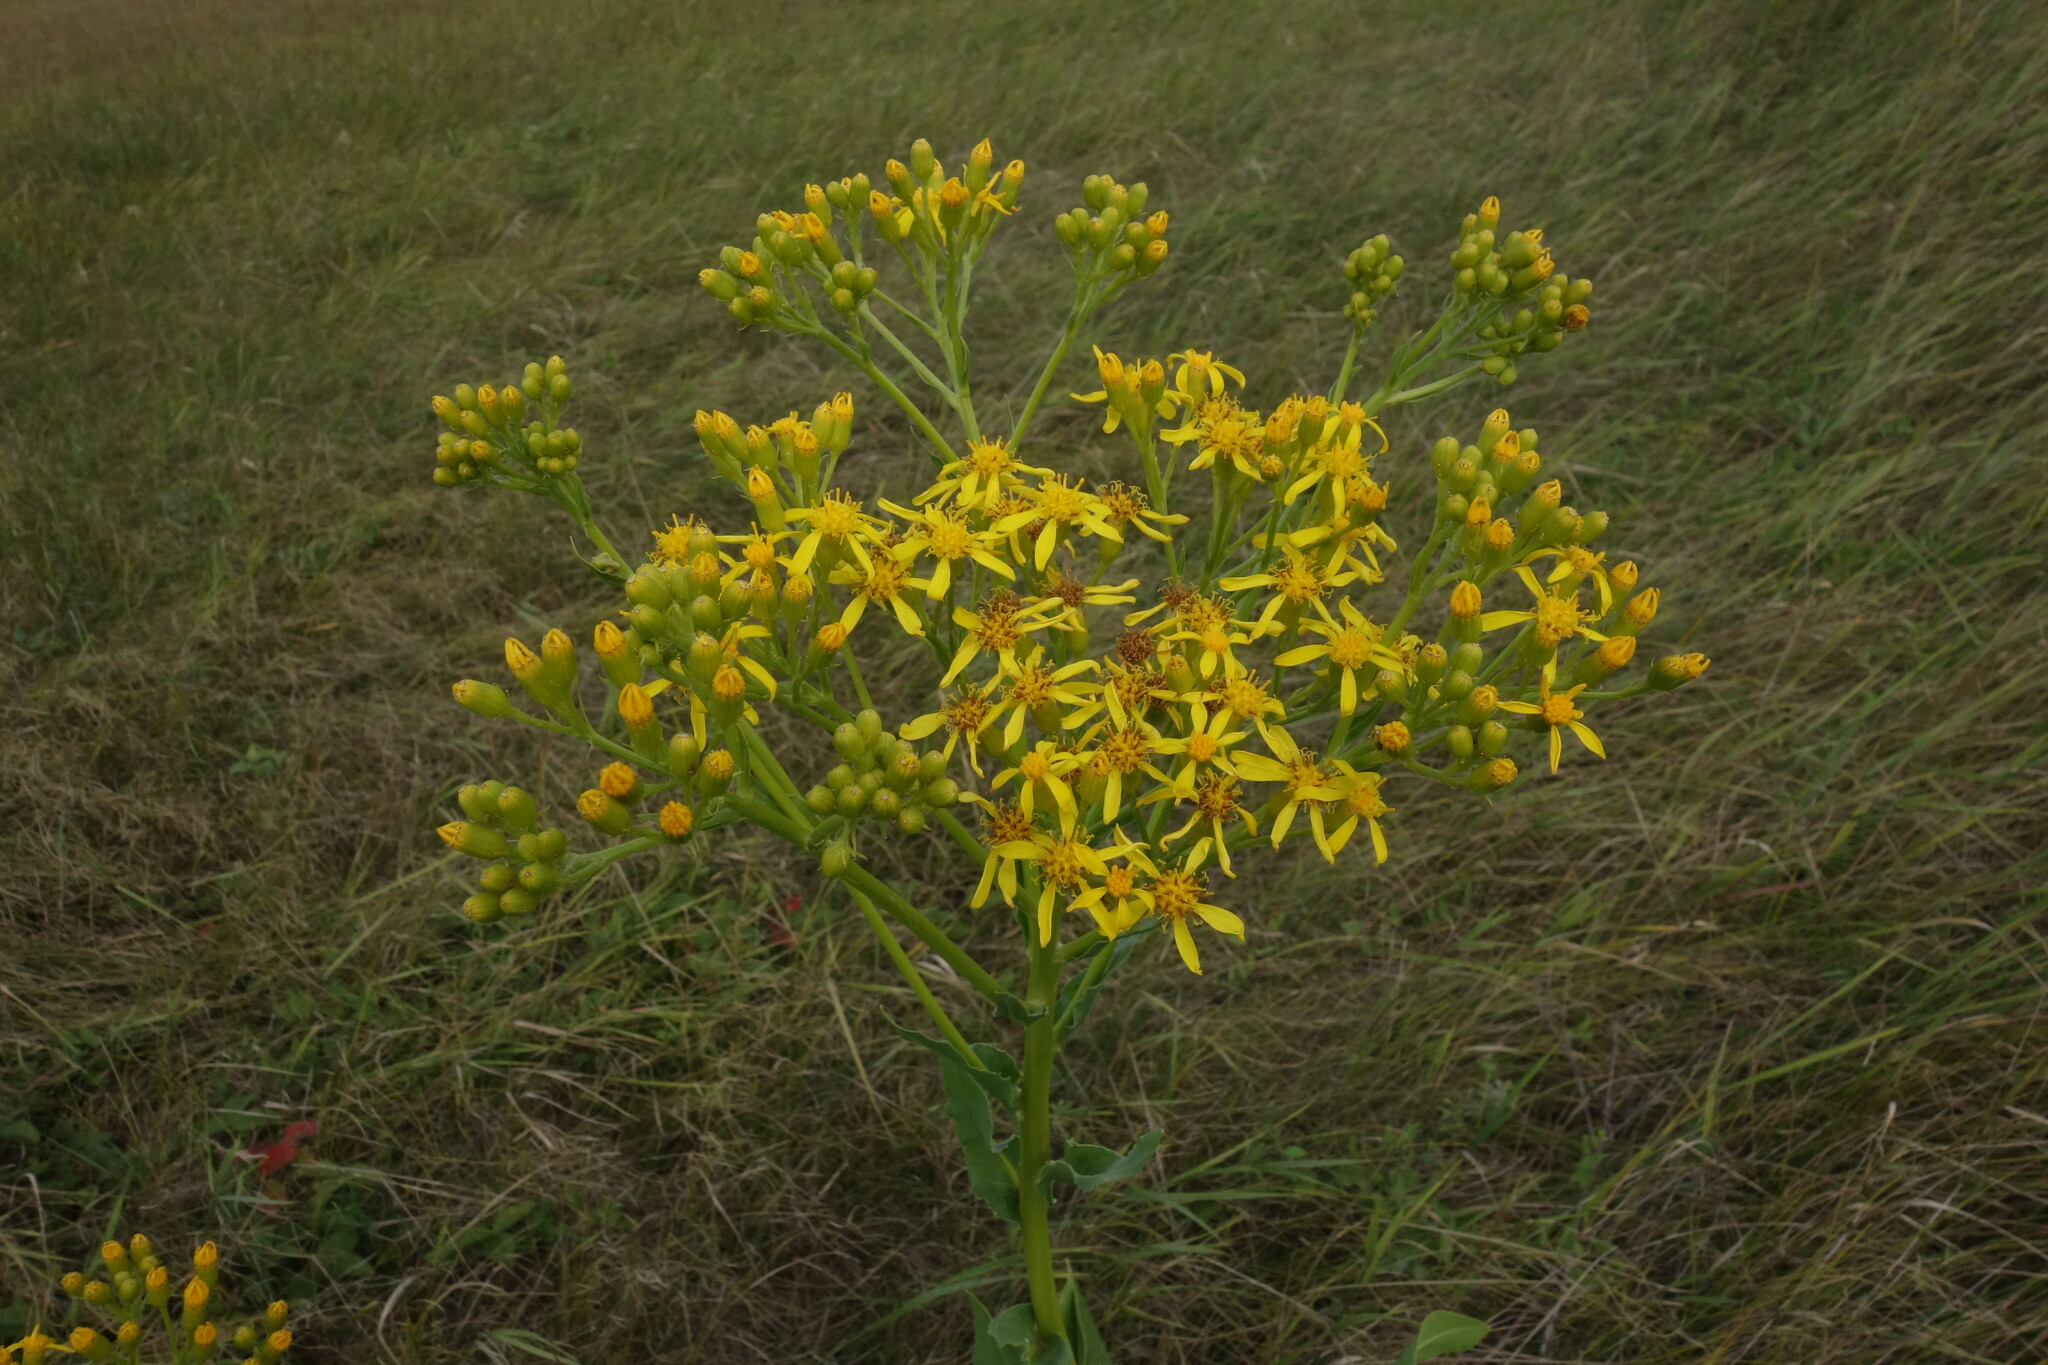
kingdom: Plantae
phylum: Tracheophyta
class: Magnoliopsida
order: Asterales
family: Asteraceae
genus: Senecio
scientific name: Senecio doria
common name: Golden ragwort
